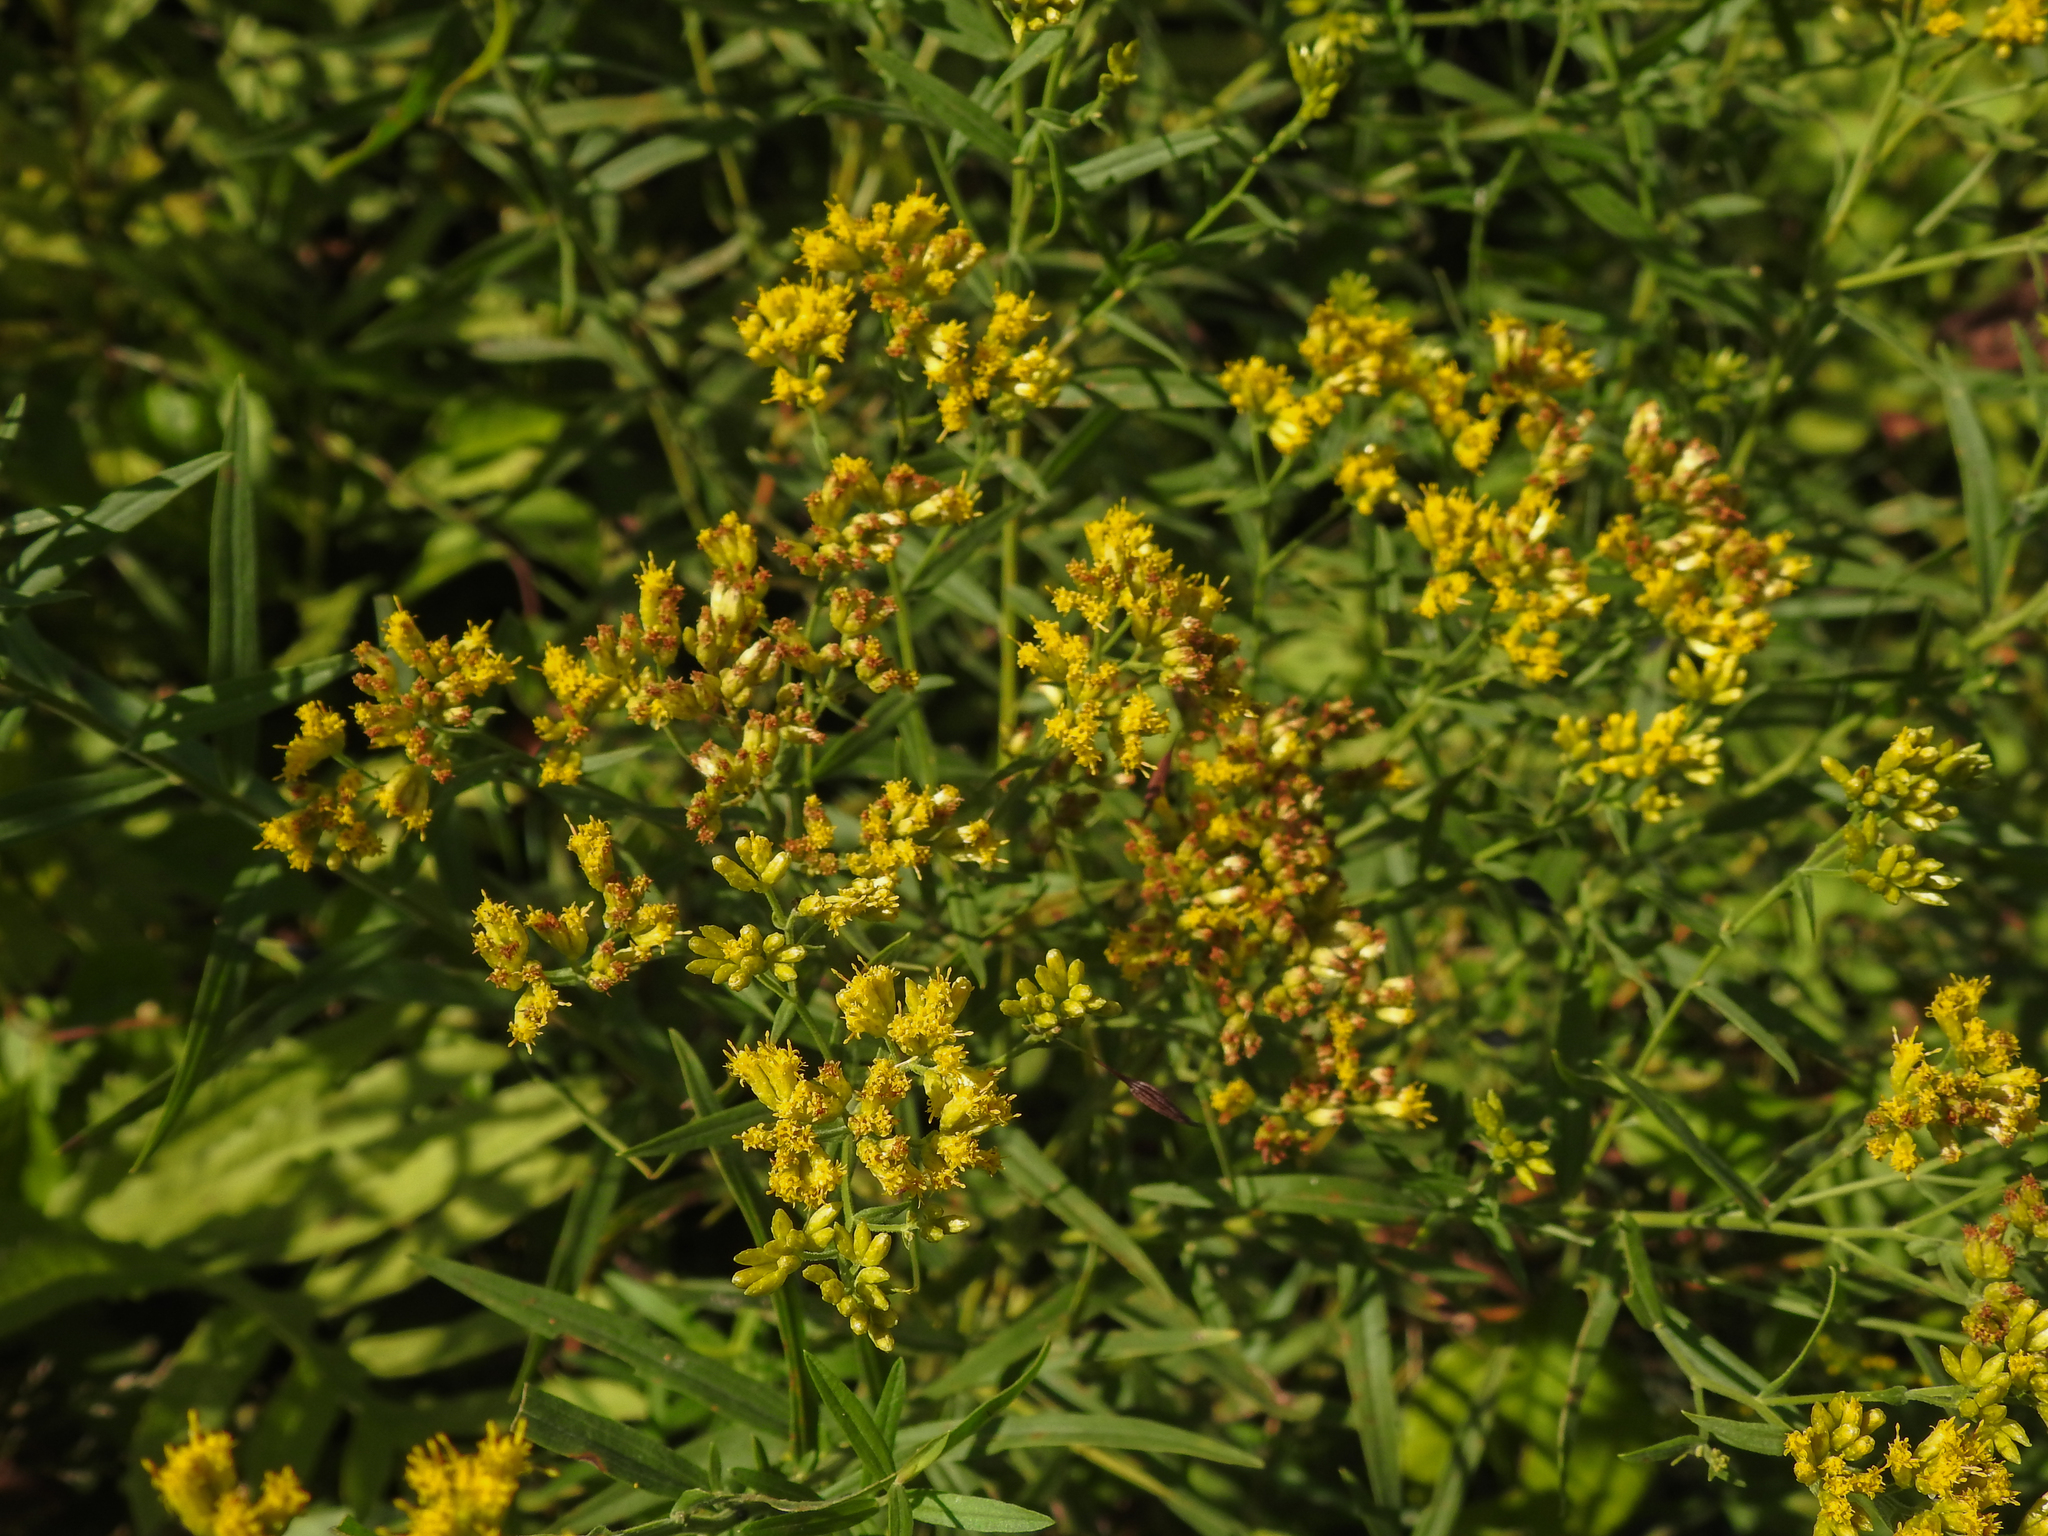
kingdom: Plantae
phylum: Tracheophyta
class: Magnoliopsida
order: Asterales
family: Asteraceae
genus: Euthamia
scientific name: Euthamia graminifolia
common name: Common goldentop
